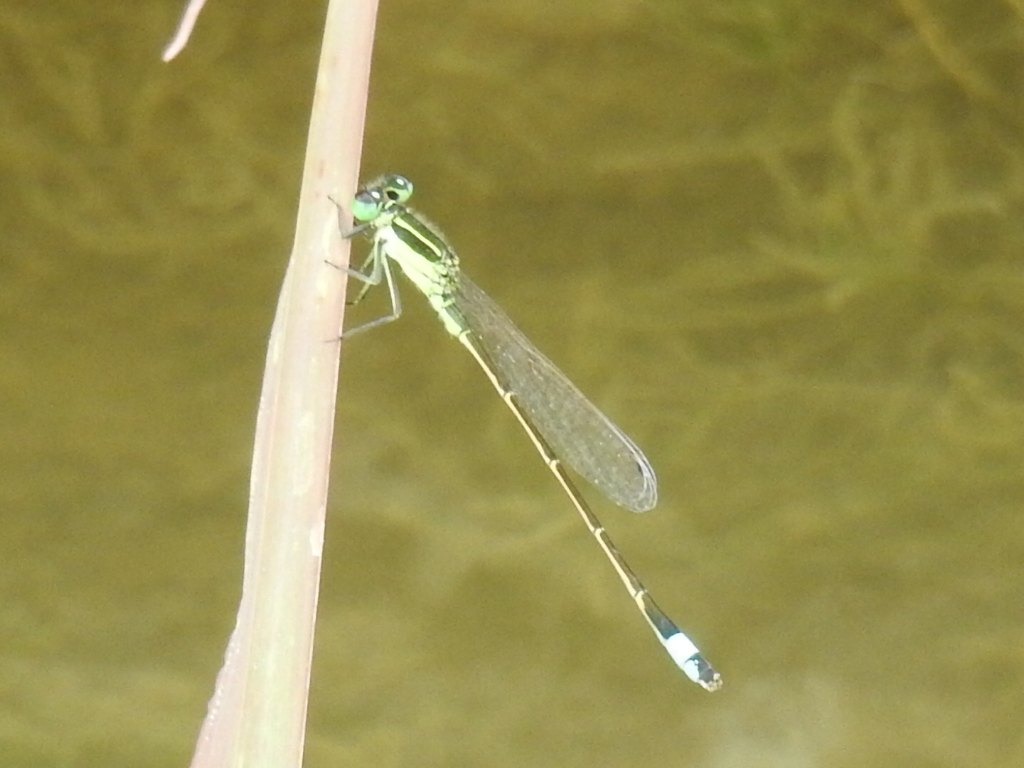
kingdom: Animalia
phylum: Arthropoda
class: Insecta
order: Odonata
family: Coenagrionidae
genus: Ischnura
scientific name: Ischnura ramburii
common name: Rambur's forktail
